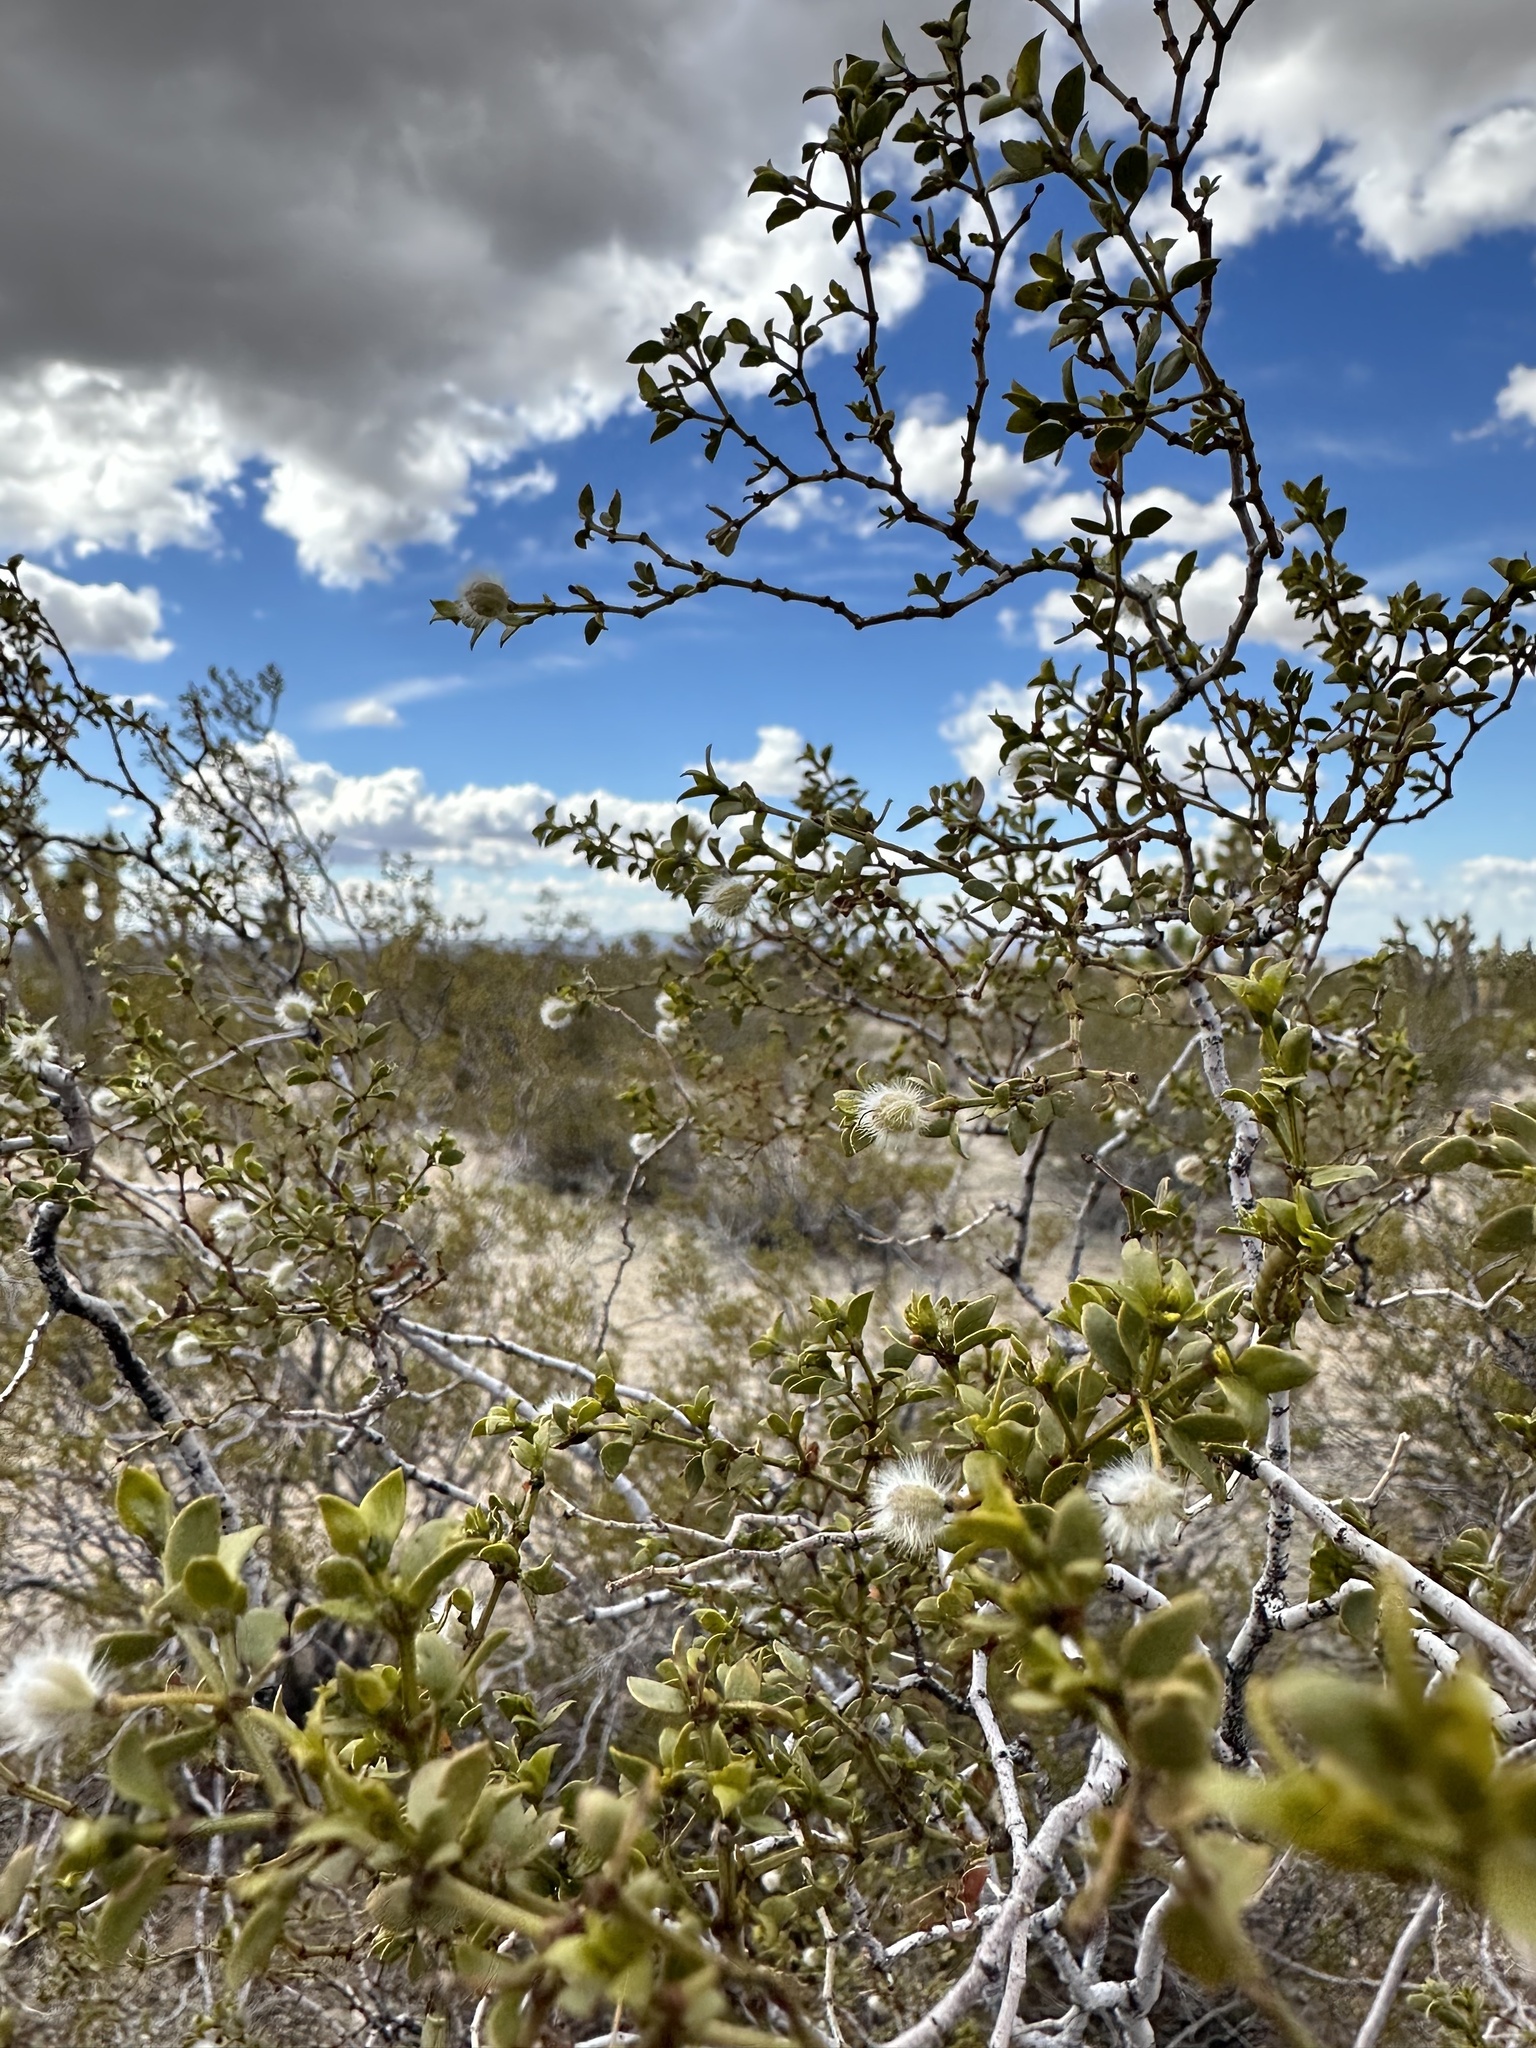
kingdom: Plantae
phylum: Tracheophyta
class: Magnoliopsida
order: Zygophyllales
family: Zygophyllaceae
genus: Larrea
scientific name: Larrea tridentata
